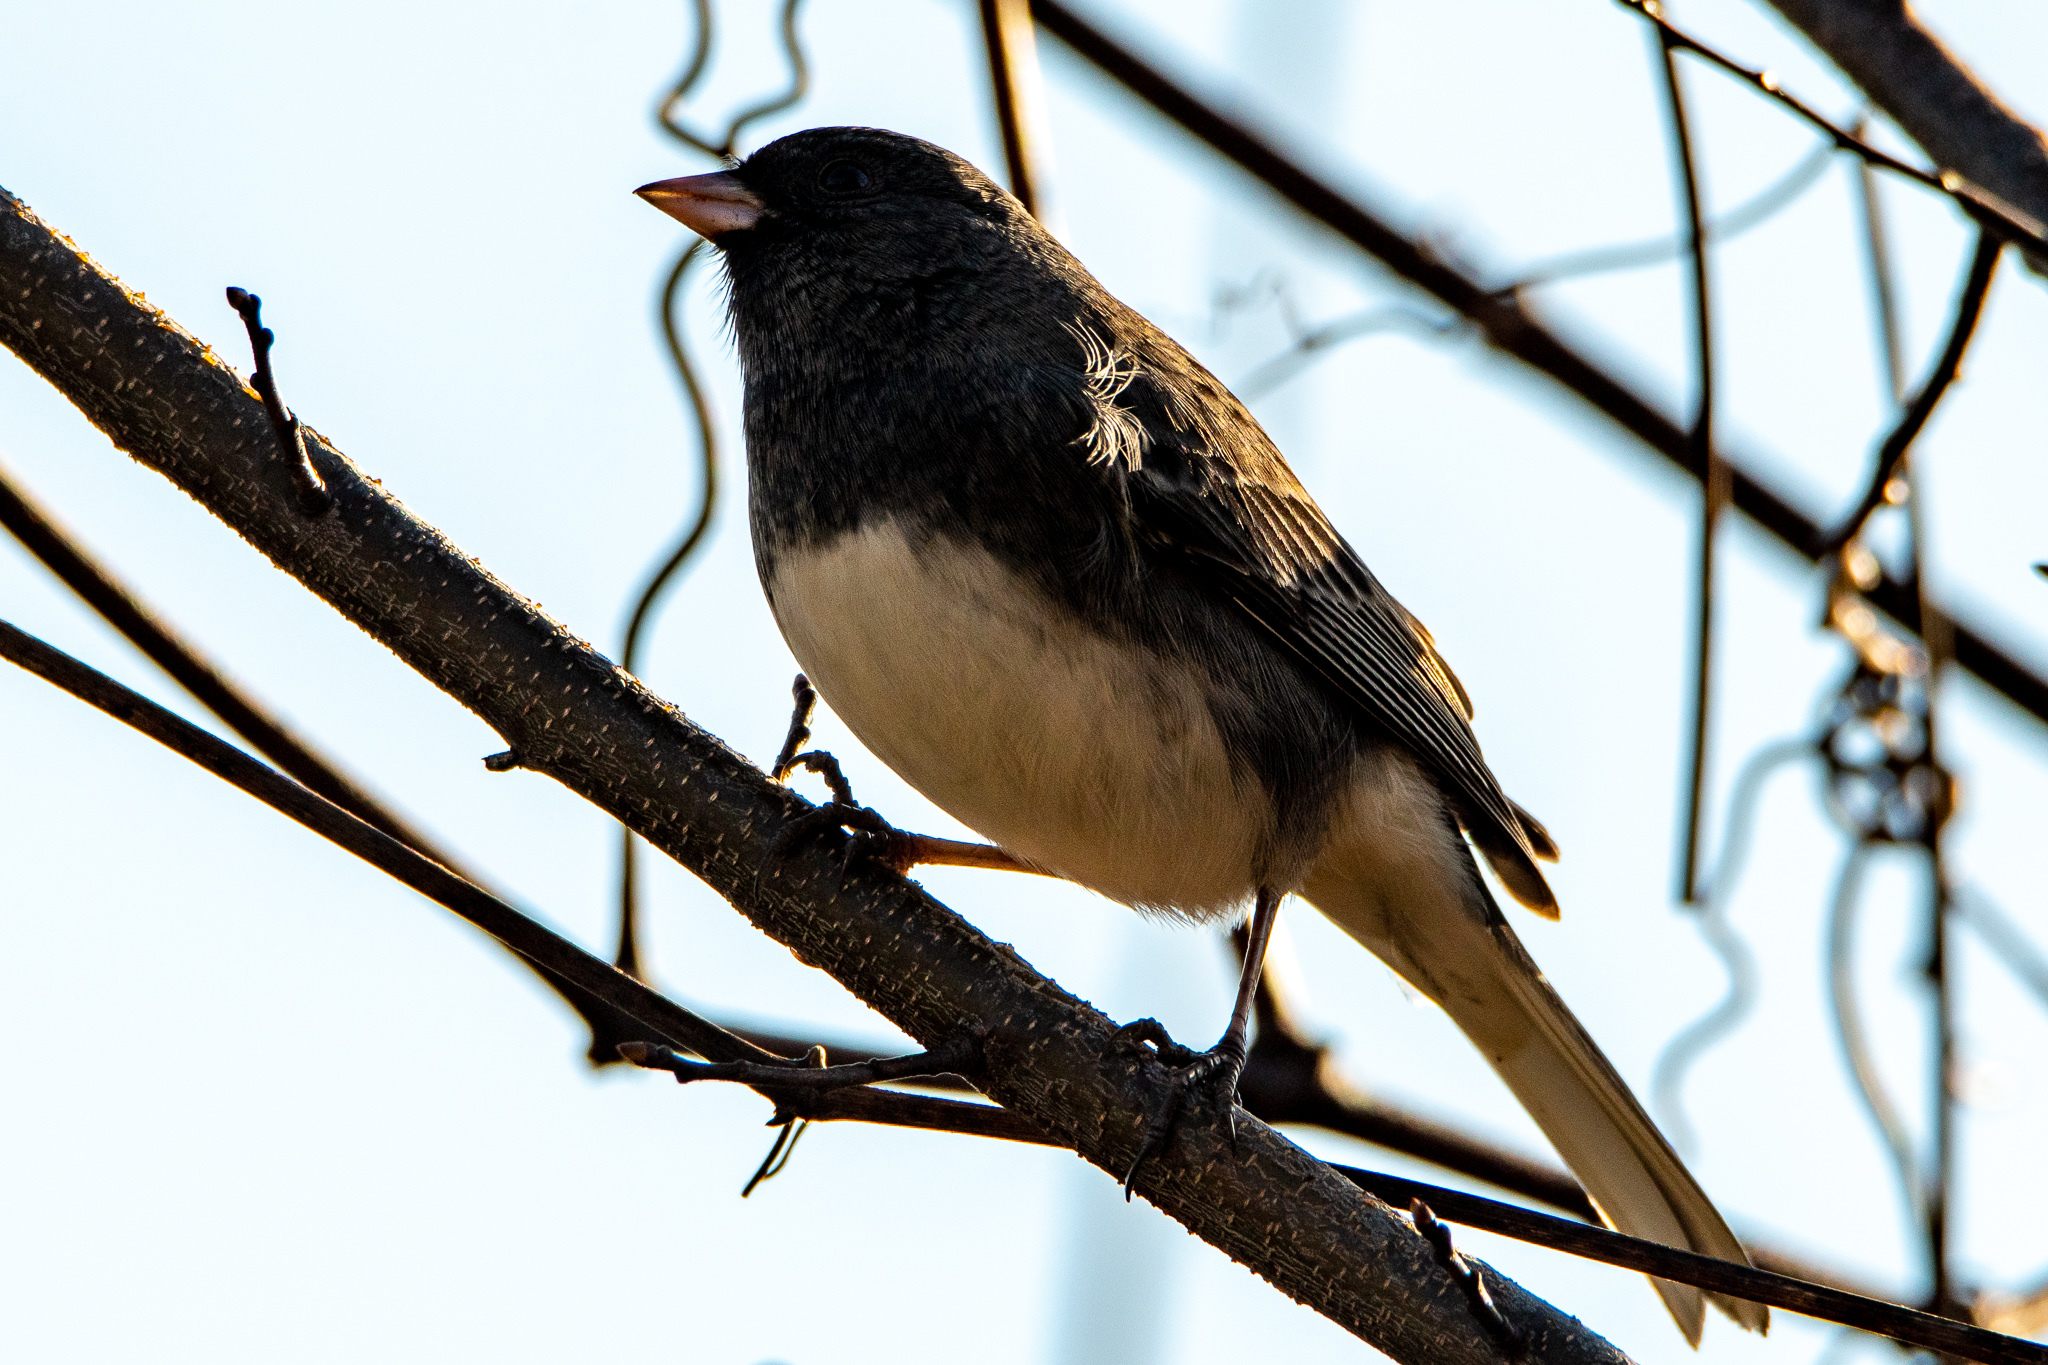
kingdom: Animalia
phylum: Chordata
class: Aves
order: Passeriformes
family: Passerellidae
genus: Junco
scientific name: Junco hyemalis
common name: Dark-eyed junco
